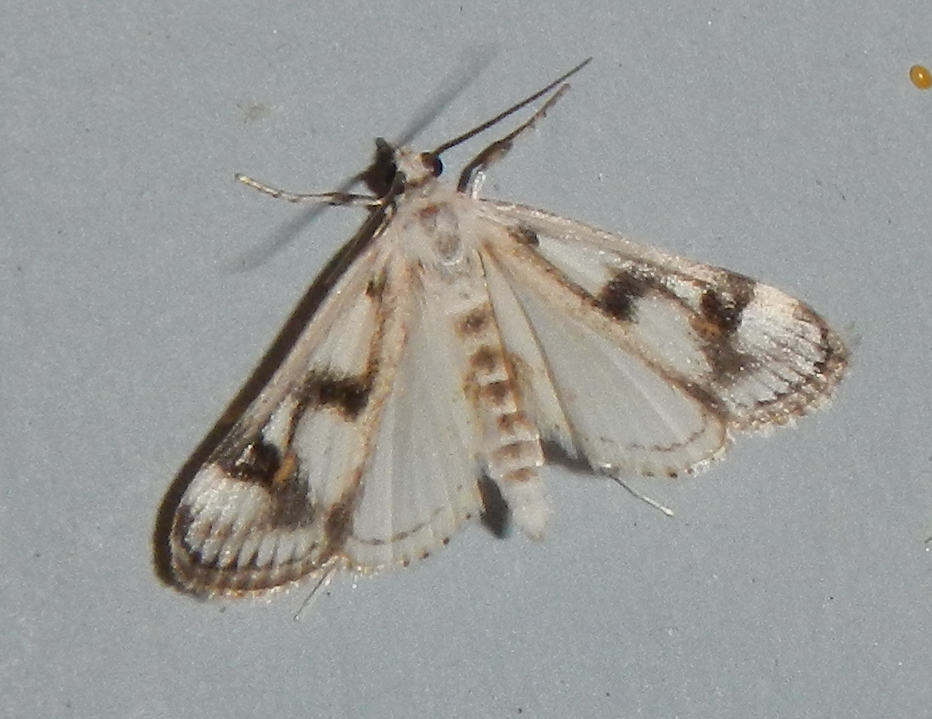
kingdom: Animalia
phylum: Arthropoda
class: Insecta
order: Lepidoptera
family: Crambidae
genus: Parapoynx
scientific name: Parapoynx maculalis
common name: Polymorphic pondweed moth
